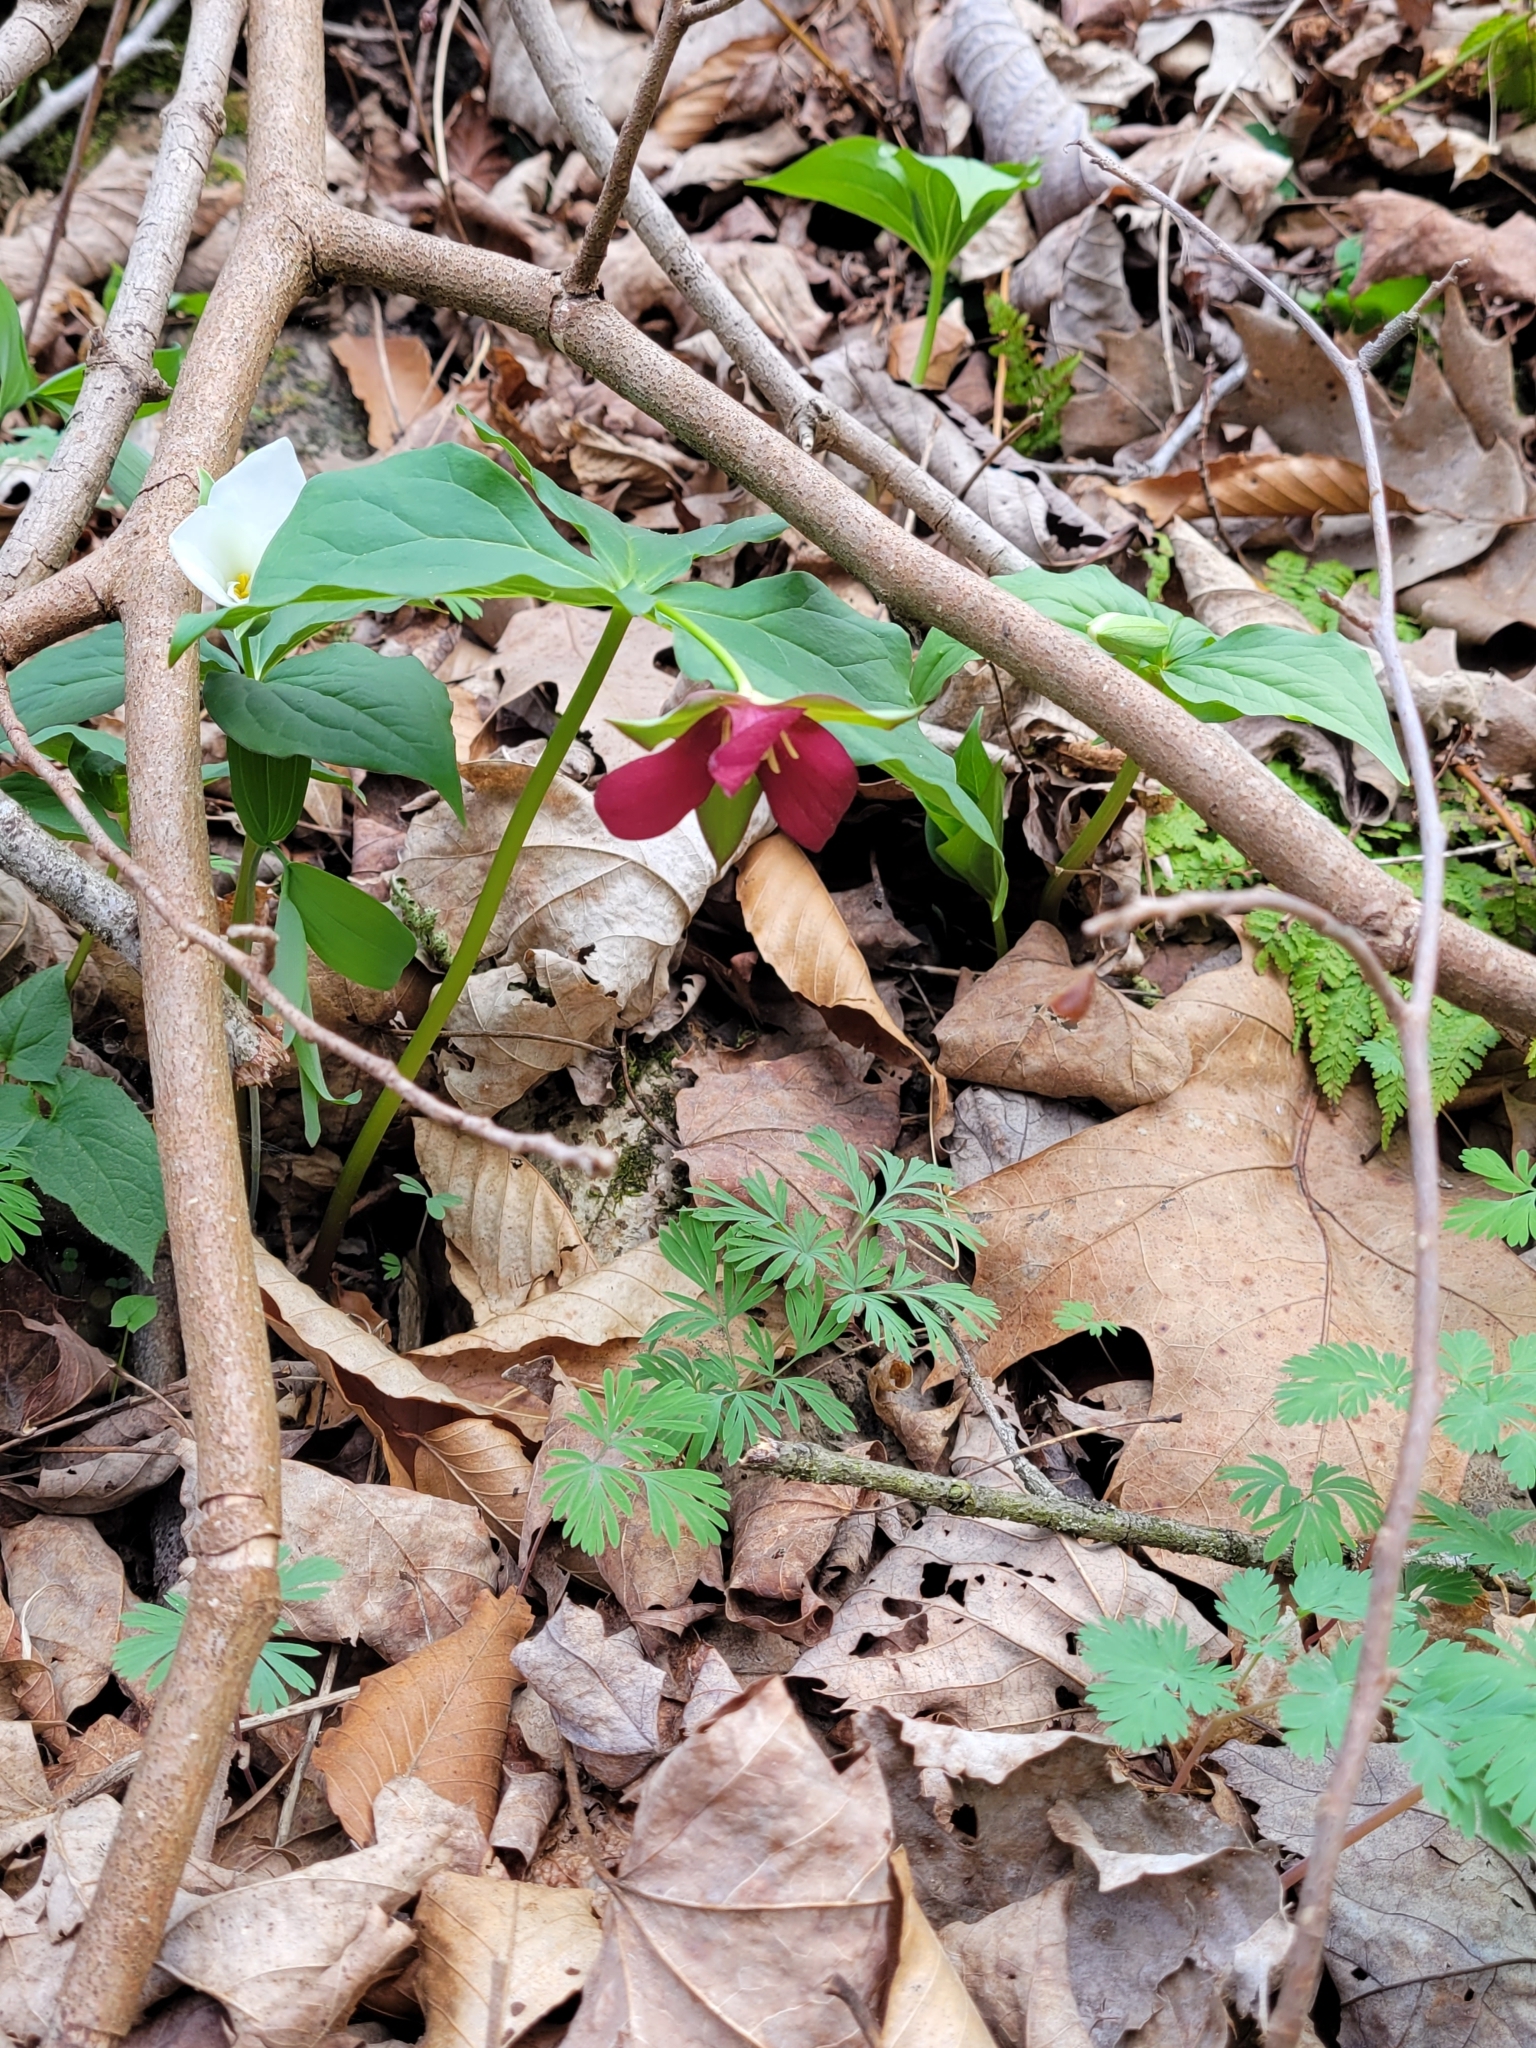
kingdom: Plantae
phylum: Tracheophyta
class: Liliopsida
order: Liliales
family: Melanthiaceae
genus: Trillium
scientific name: Trillium erectum
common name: Purple trillium
